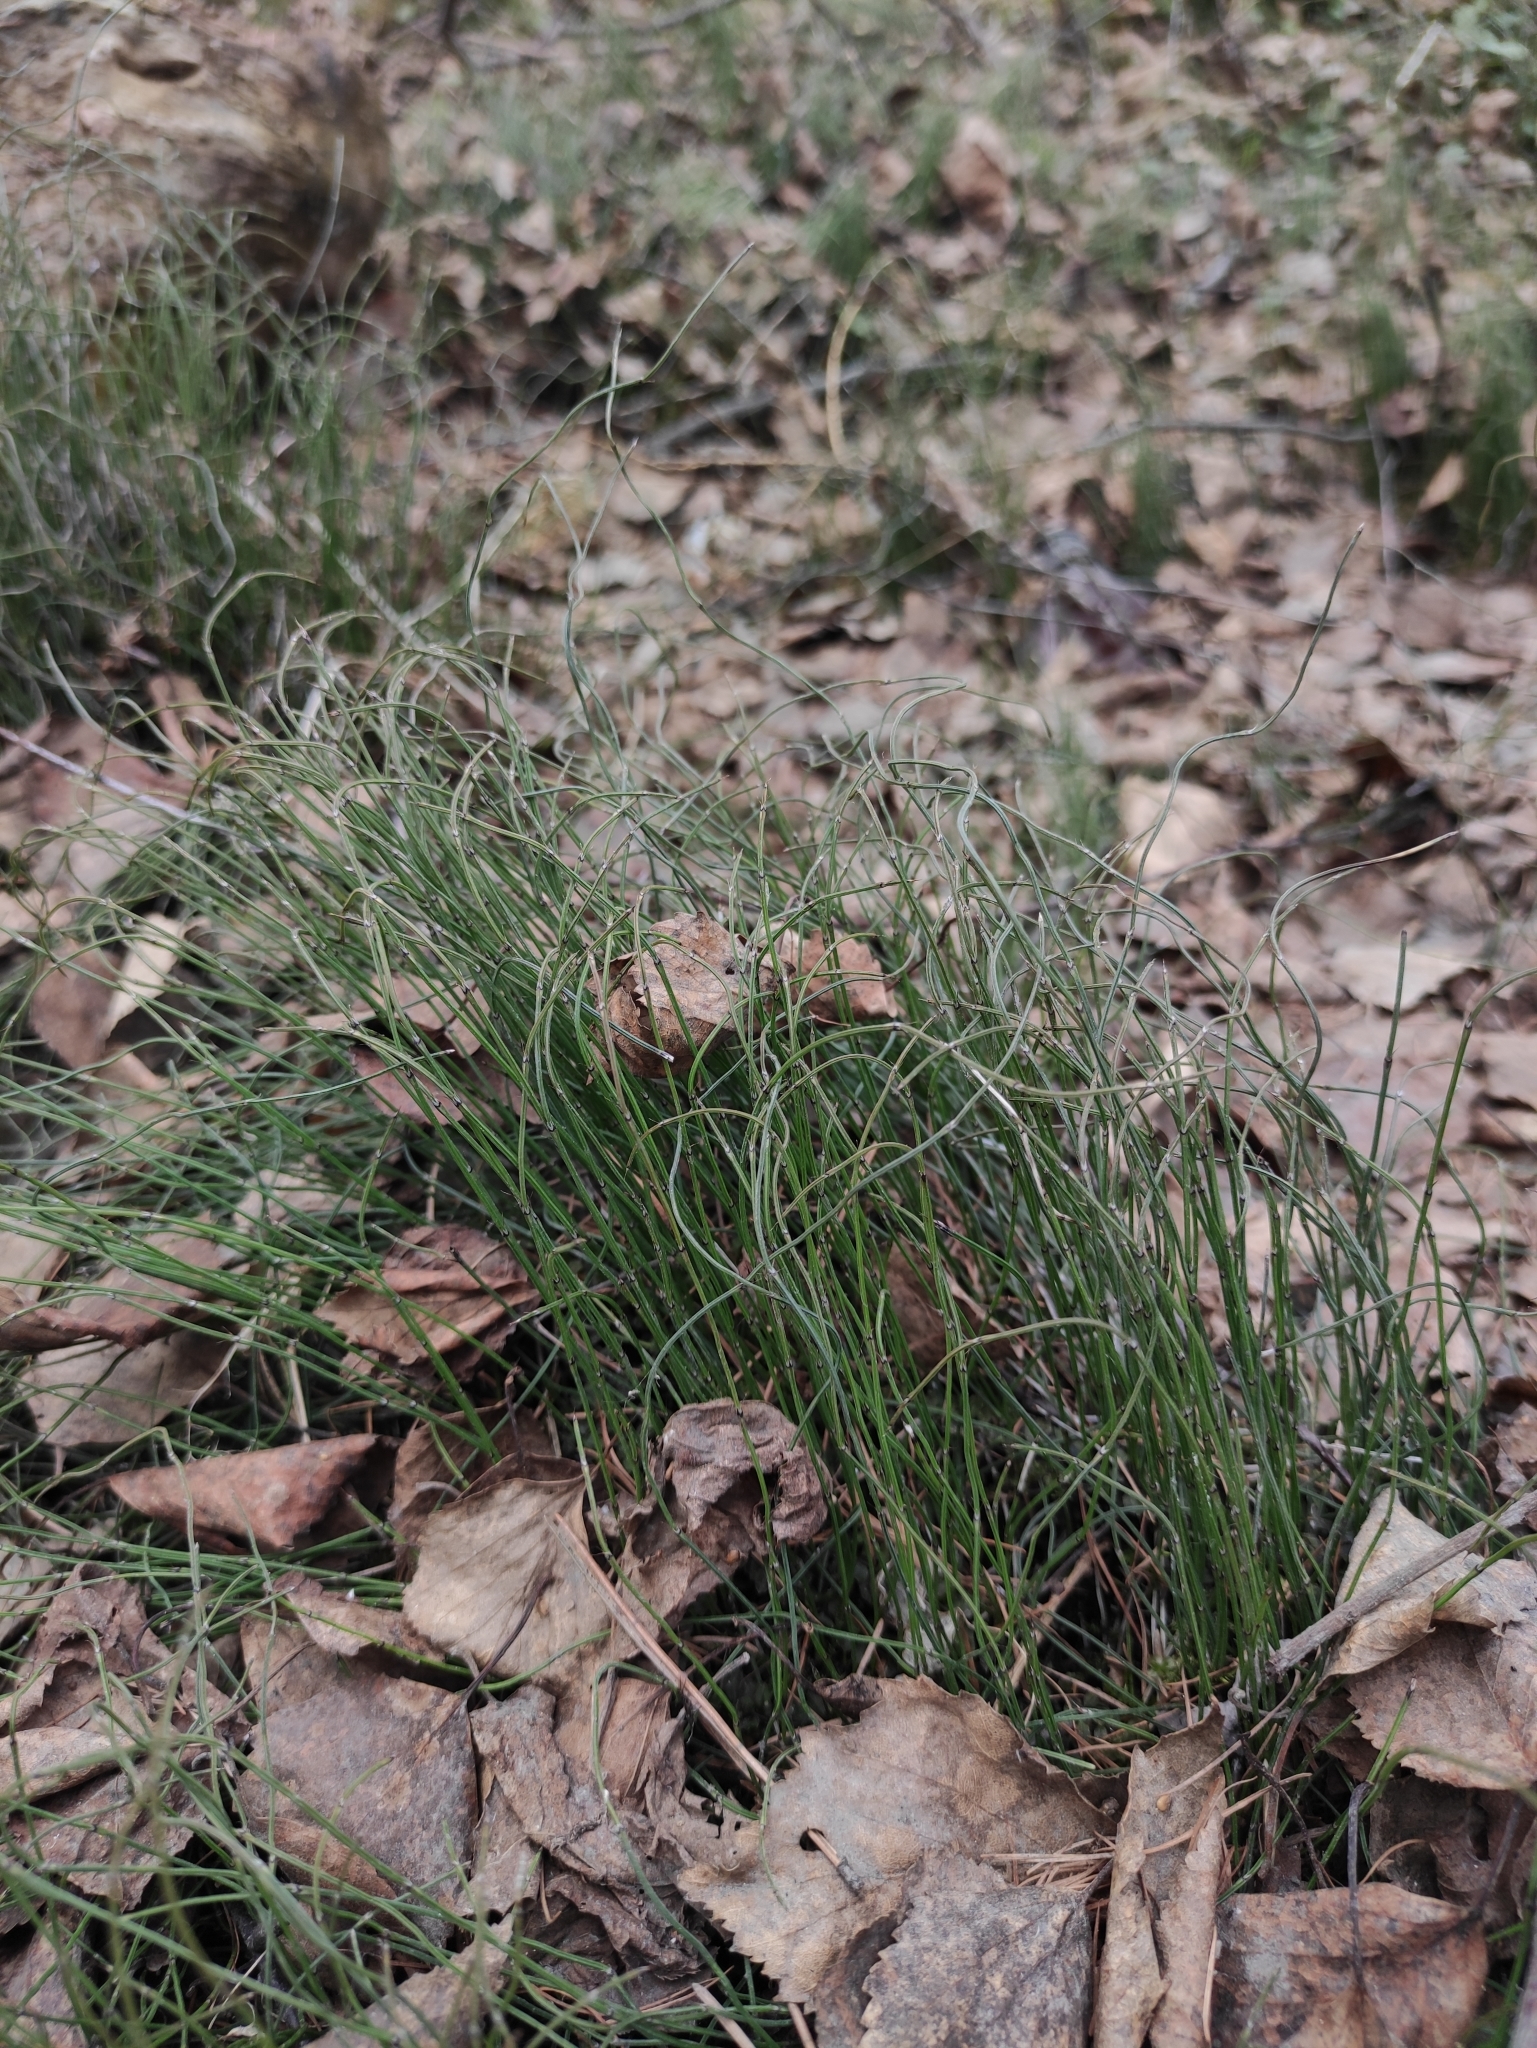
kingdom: Plantae
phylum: Tracheophyta
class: Polypodiopsida
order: Equisetales
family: Equisetaceae
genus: Equisetum
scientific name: Equisetum scirpoides
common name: Delicate horsetail
